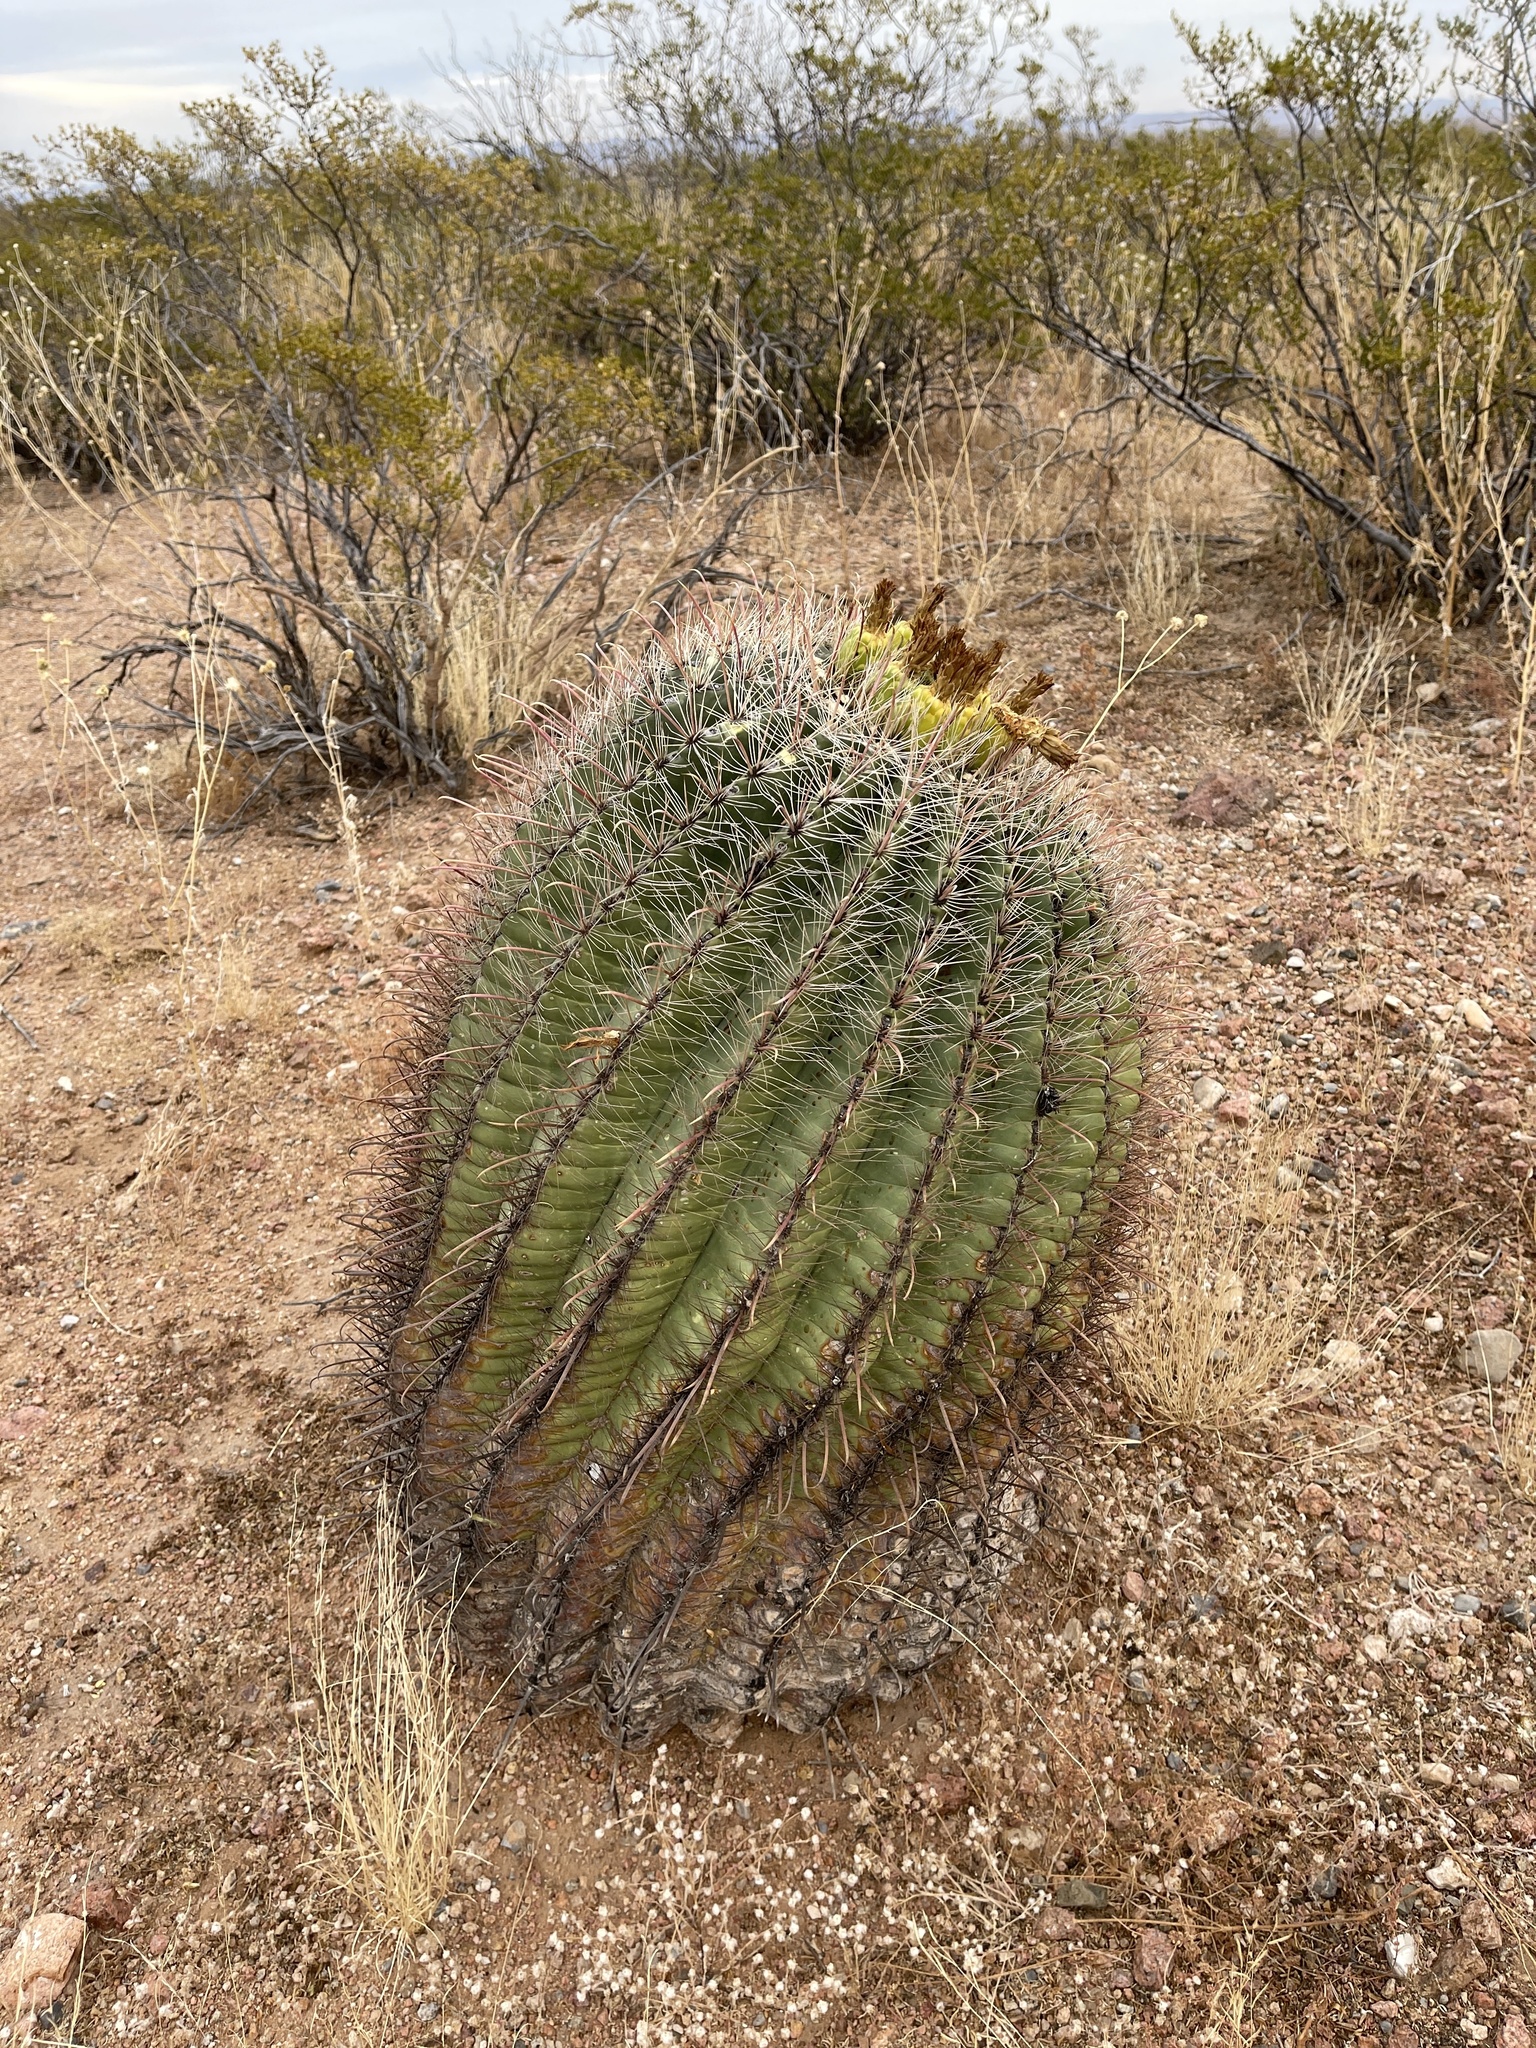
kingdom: Plantae
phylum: Tracheophyta
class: Magnoliopsida
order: Caryophyllales
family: Cactaceae
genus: Ferocactus
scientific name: Ferocactus wislizeni
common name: Candy barrel cactus
